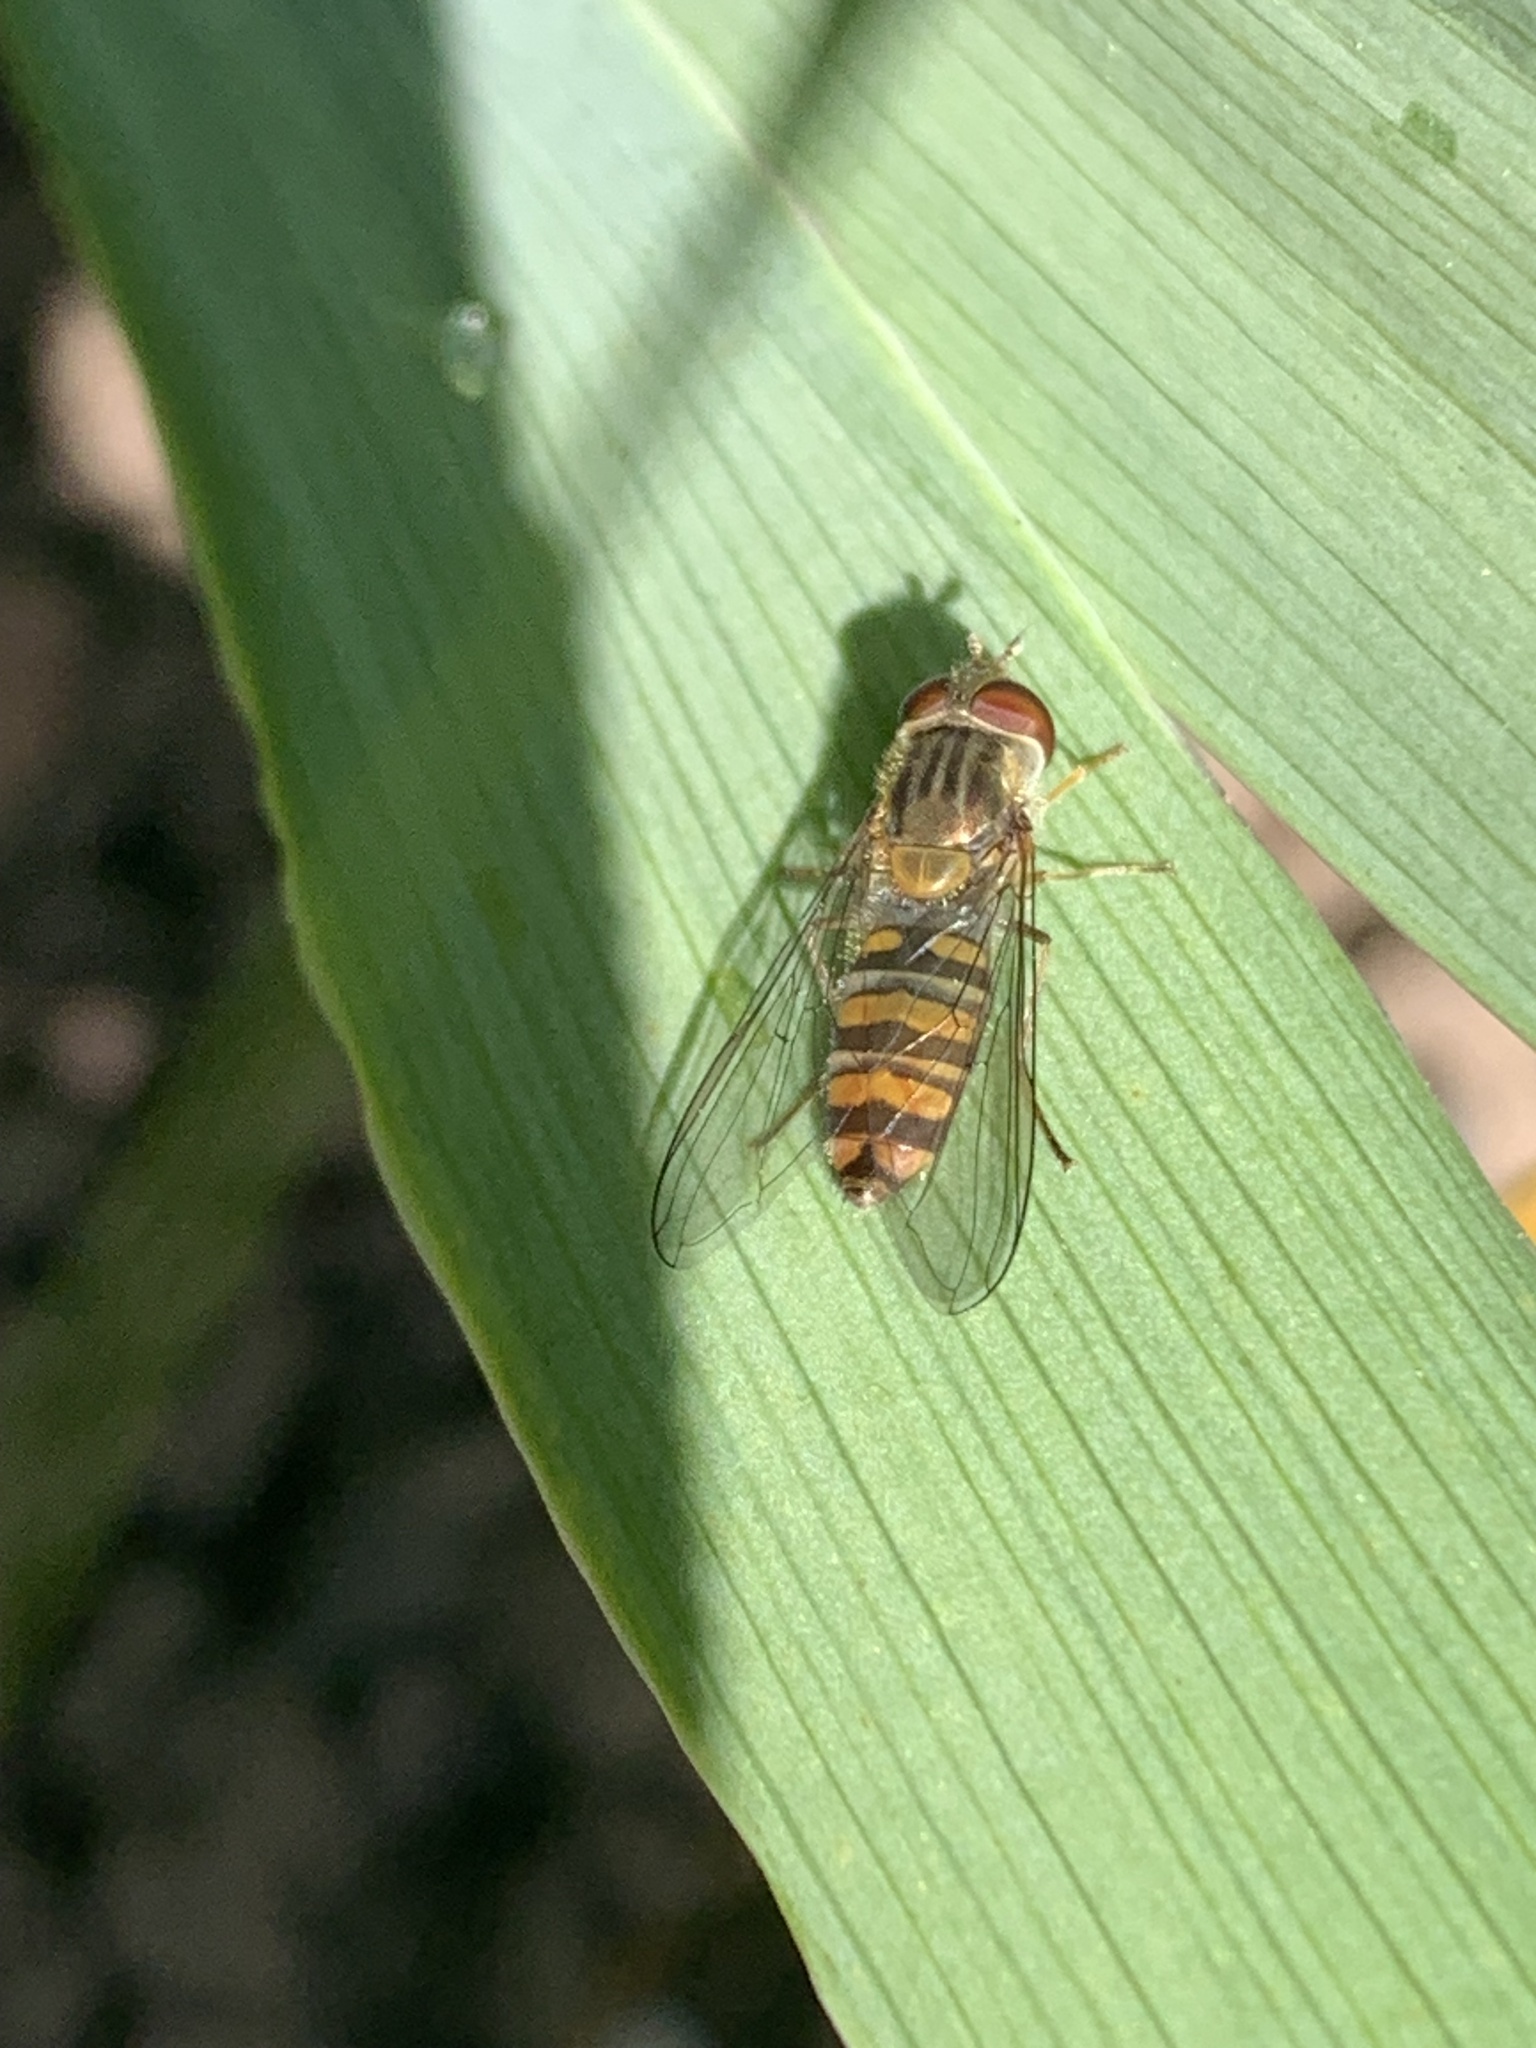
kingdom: Animalia
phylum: Arthropoda
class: Insecta
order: Diptera
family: Syrphidae
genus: Episyrphus
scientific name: Episyrphus balteatus
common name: Marmalade hoverfly
